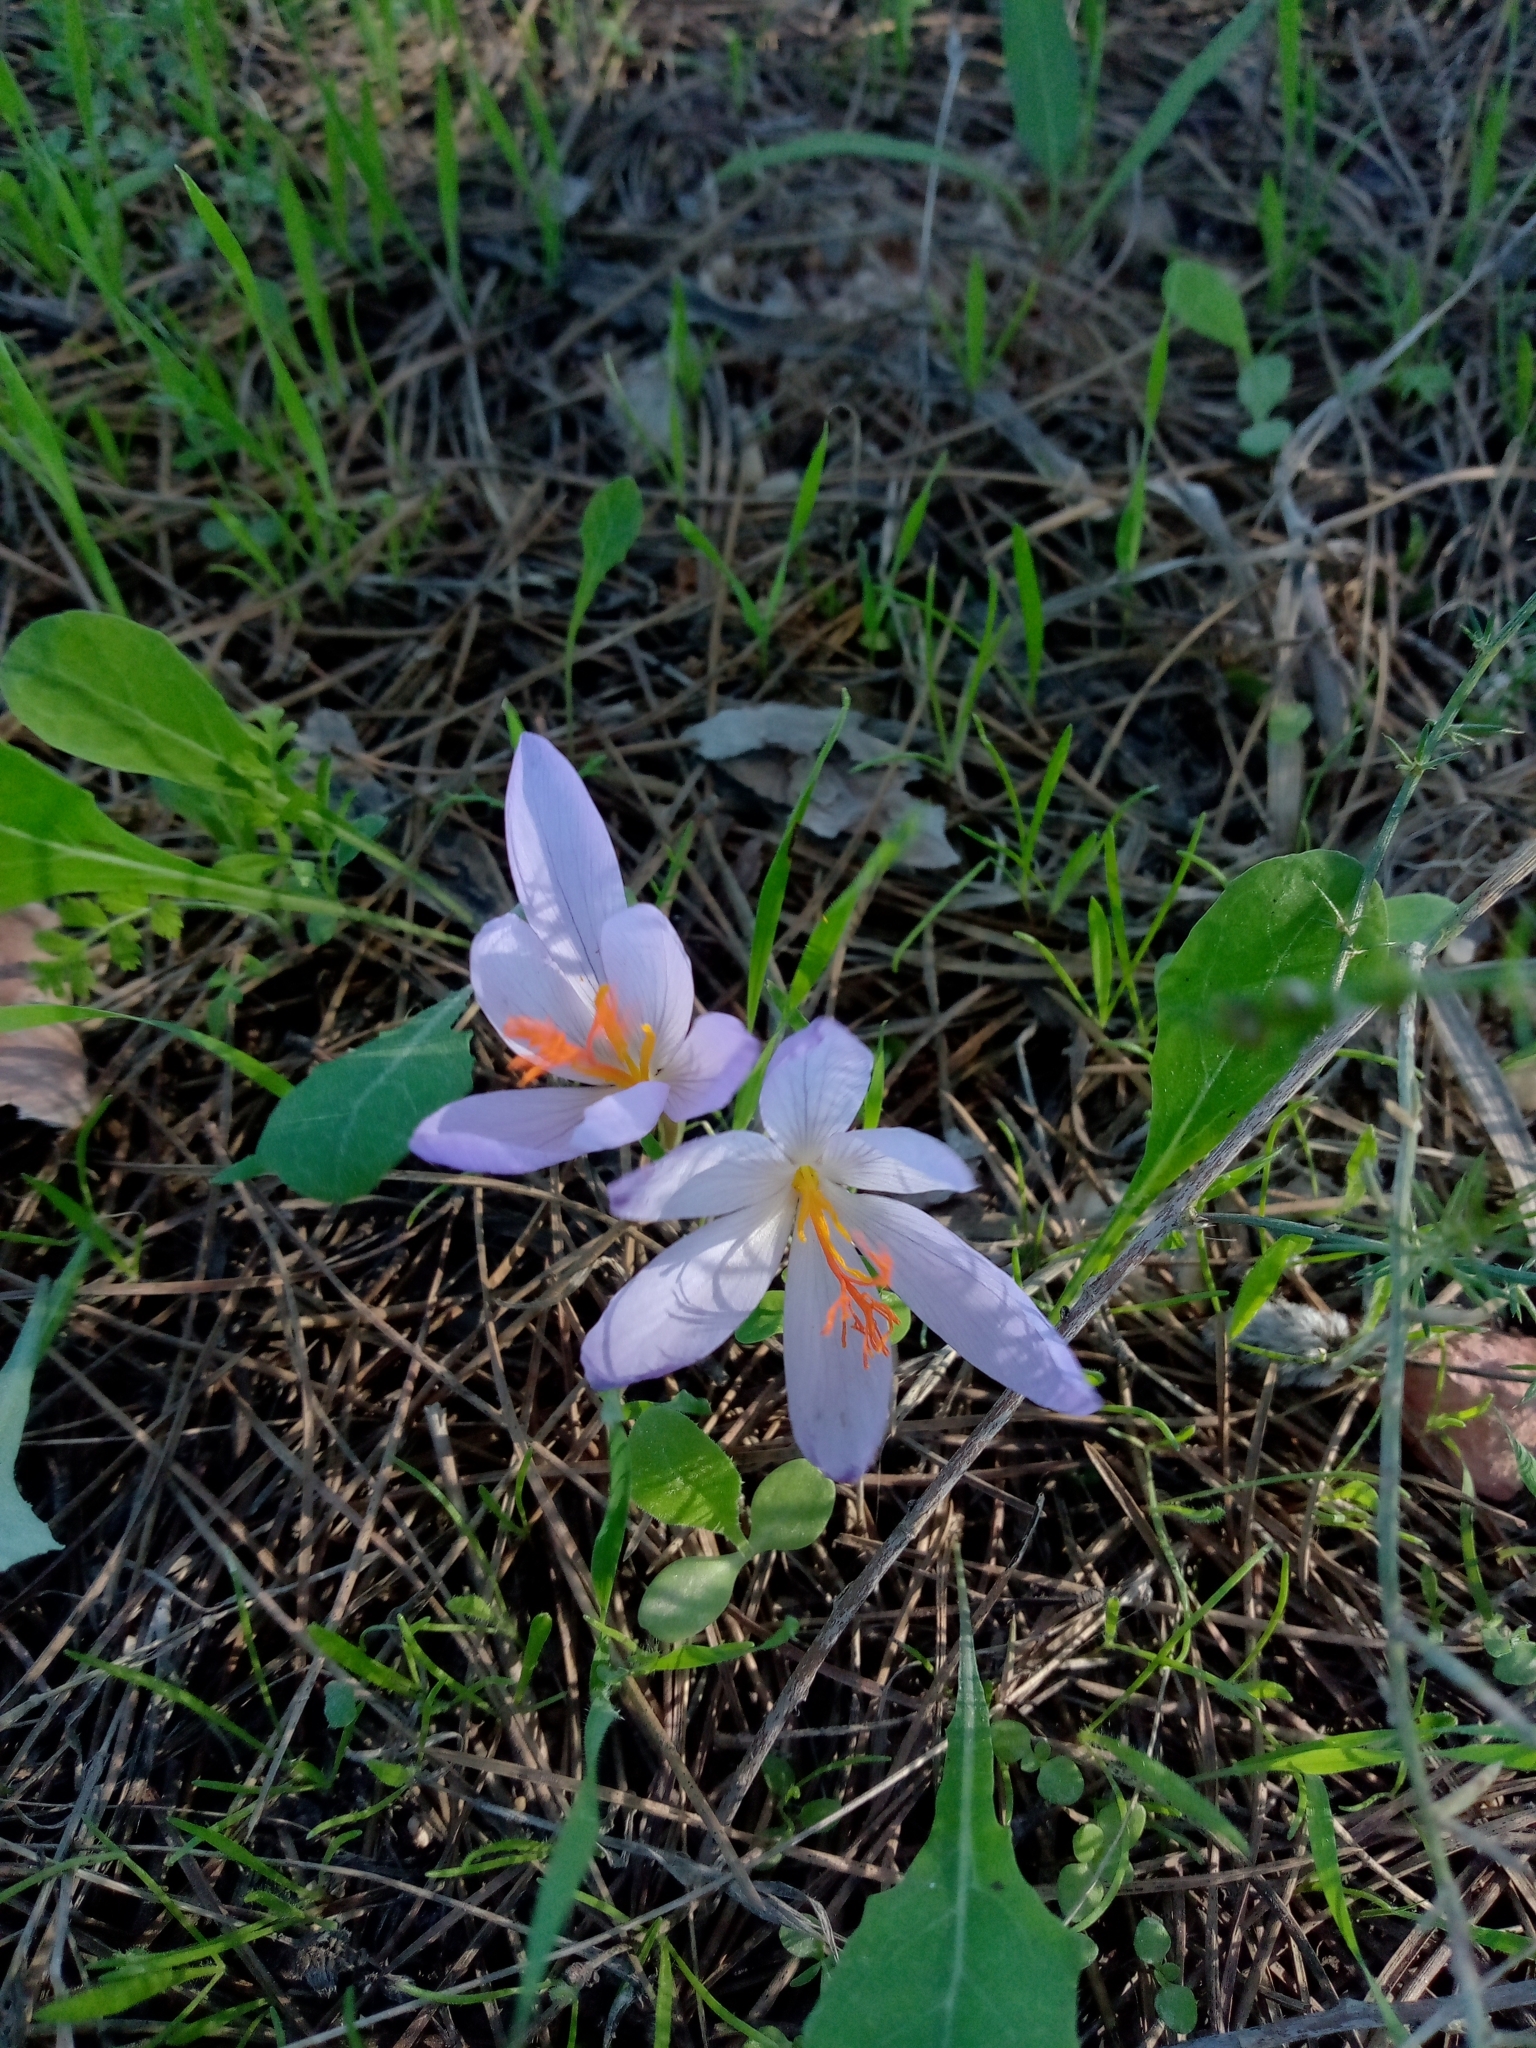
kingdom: Plantae
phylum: Tracheophyta
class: Liliopsida
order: Asparagales
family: Iridaceae
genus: Crocus
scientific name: Crocus serotinus
